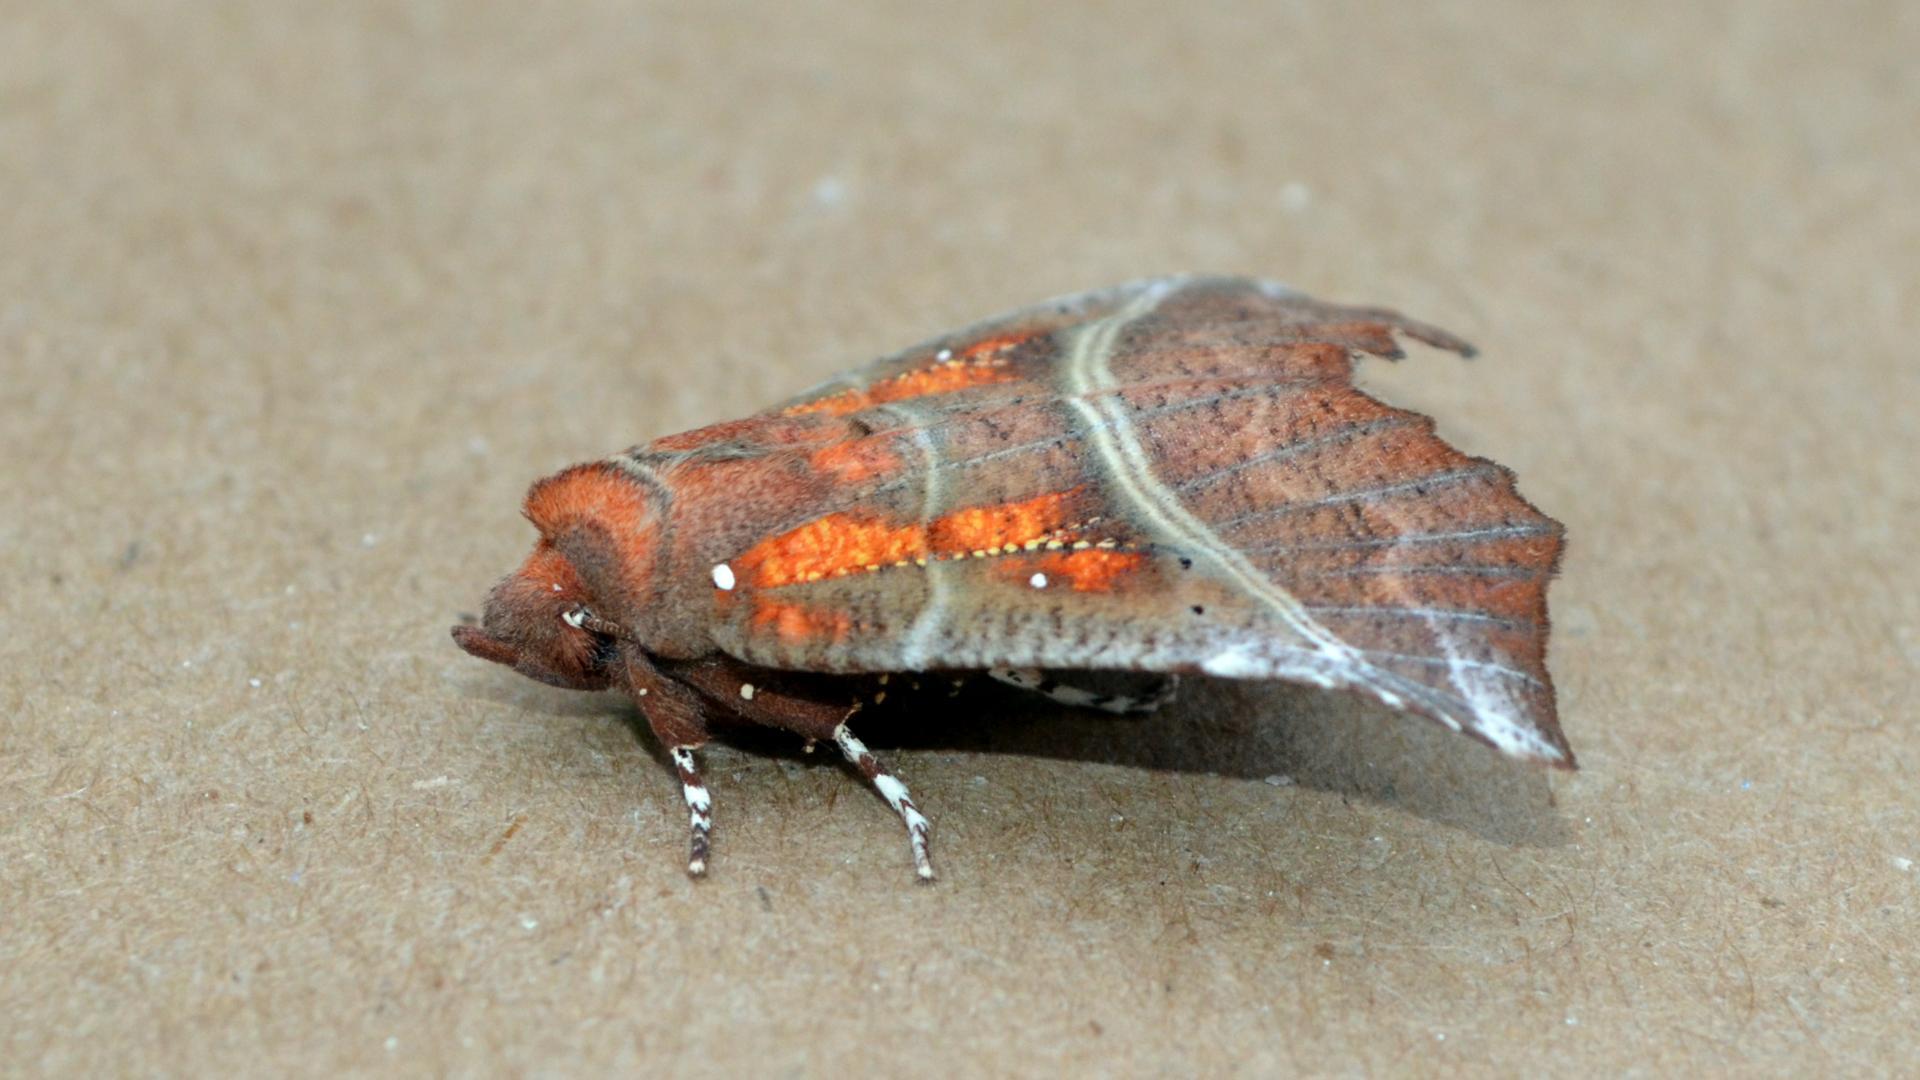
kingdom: Animalia
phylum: Arthropoda
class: Insecta
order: Lepidoptera
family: Erebidae
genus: Scoliopteryx
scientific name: Scoliopteryx libatrix
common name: Herald
